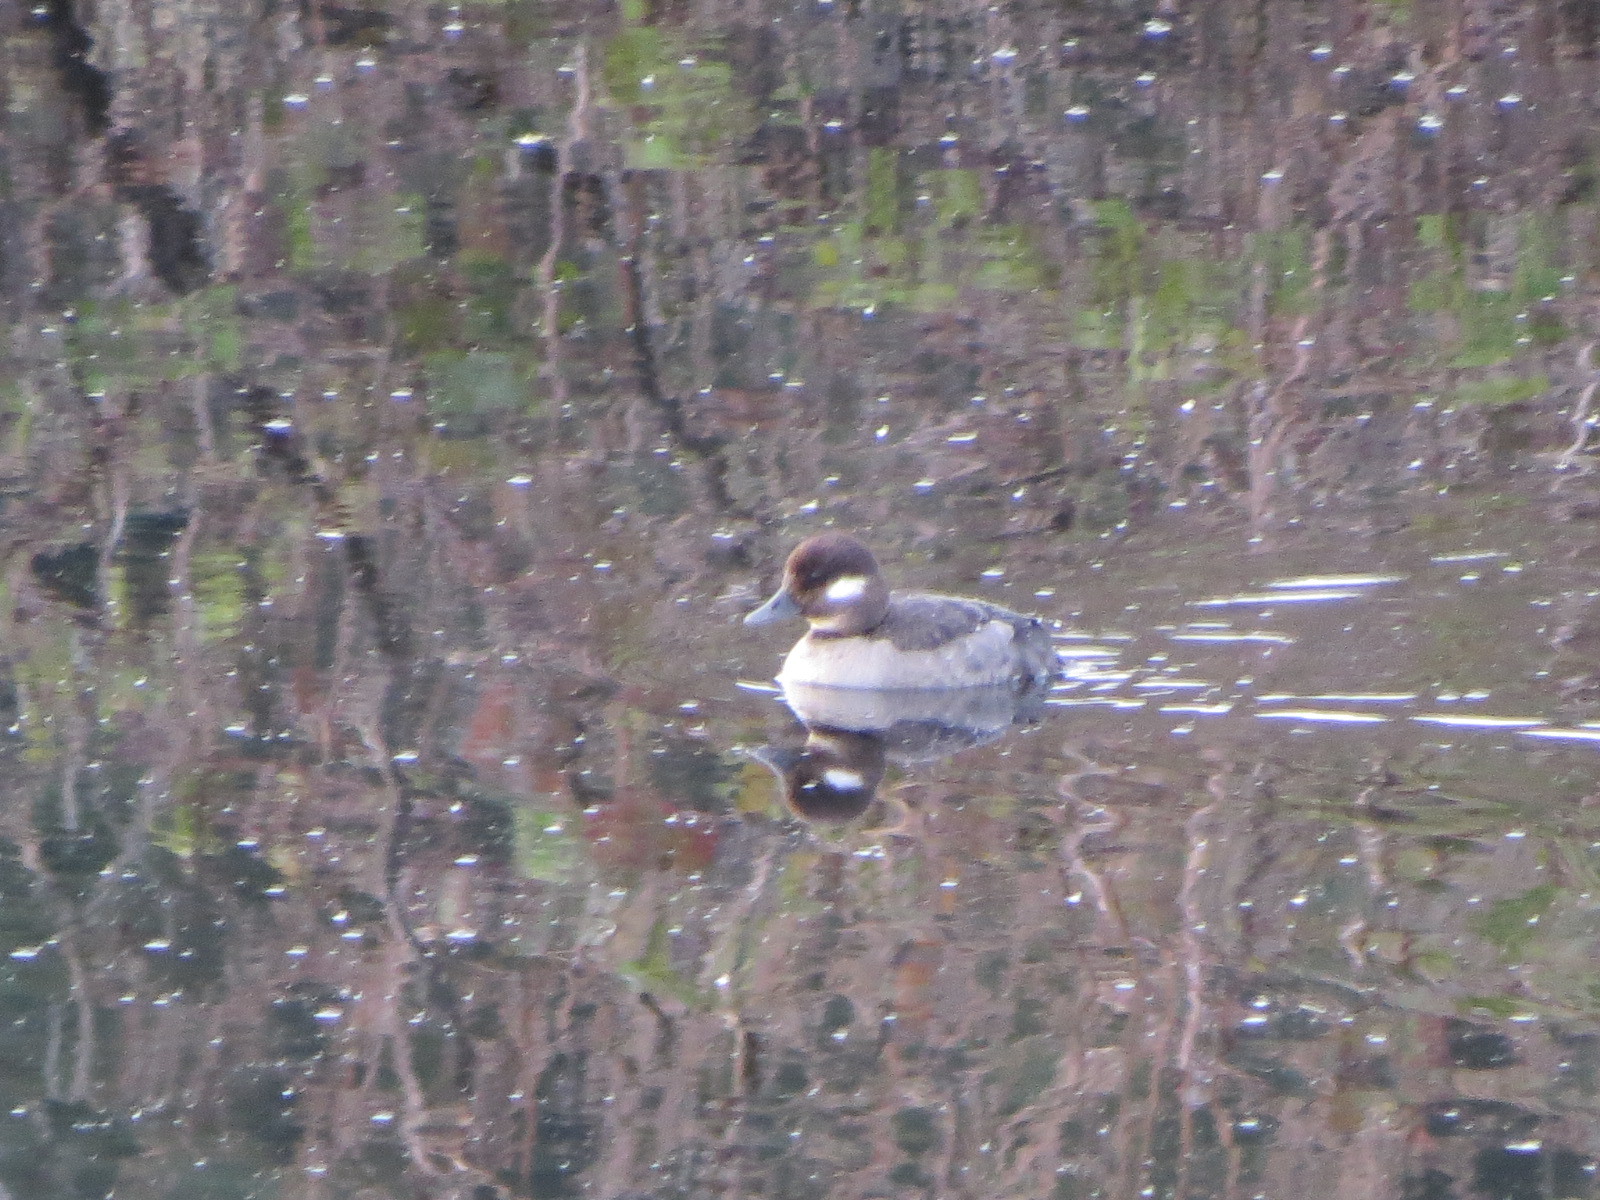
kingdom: Animalia
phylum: Chordata
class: Aves
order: Anseriformes
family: Anatidae
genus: Bucephala
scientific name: Bucephala albeola
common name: Bufflehead
